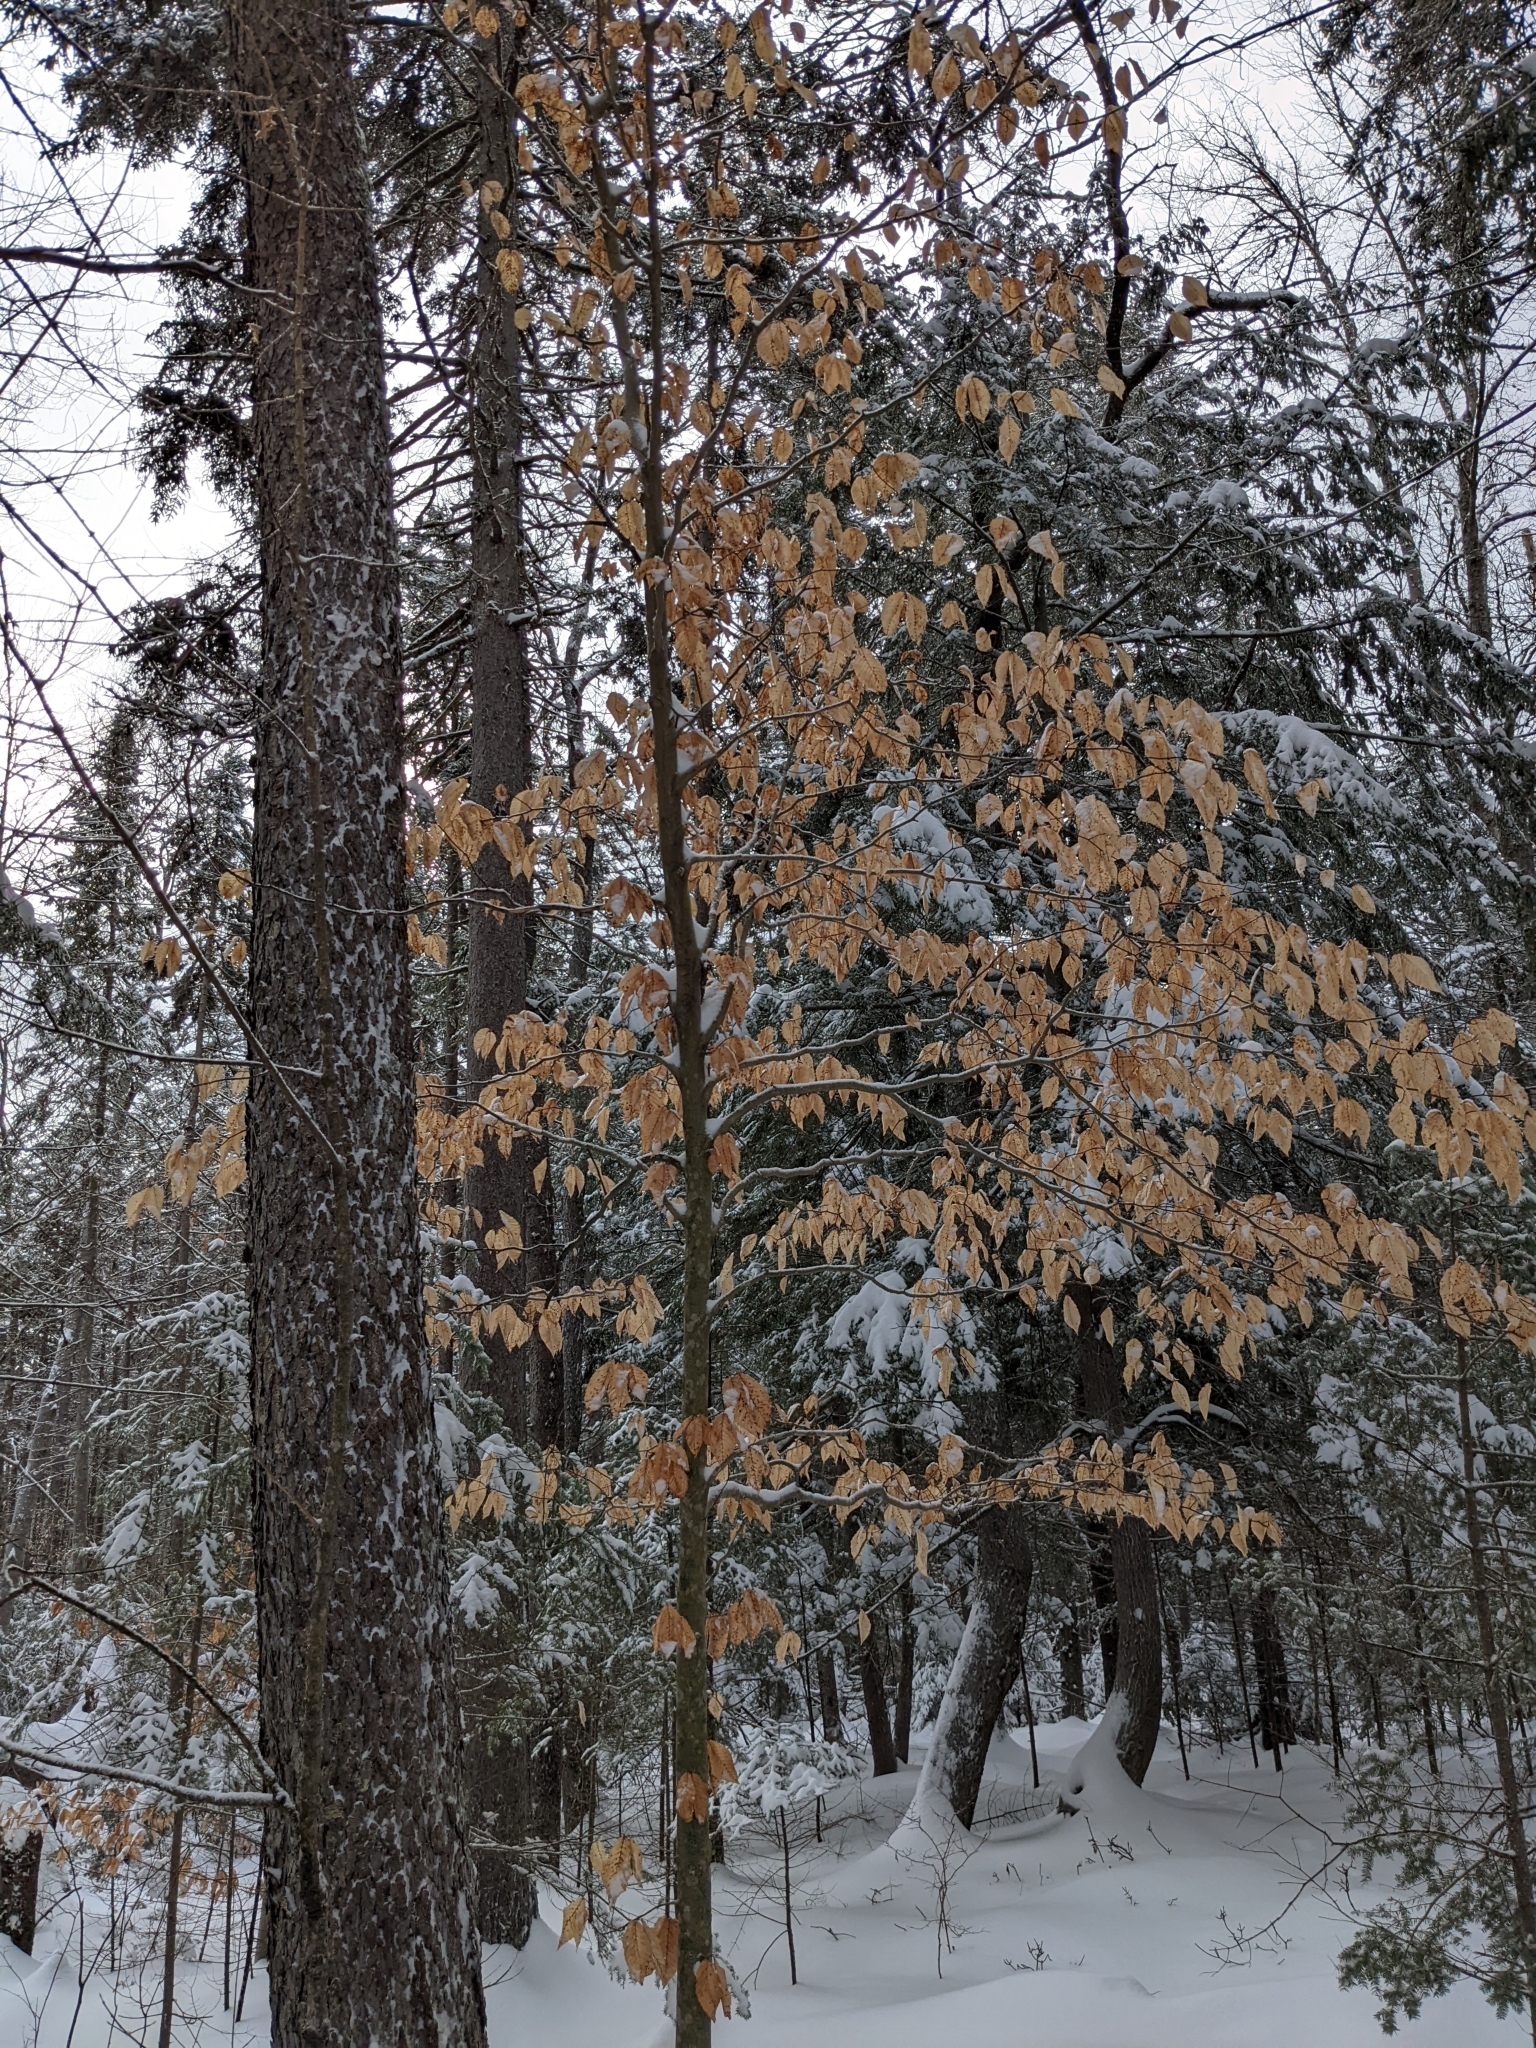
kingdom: Plantae
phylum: Tracheophyta
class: Magnoliopsida
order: Fagales
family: Fagaceae
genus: Fagus
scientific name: Fagus grandifolia
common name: American beech
